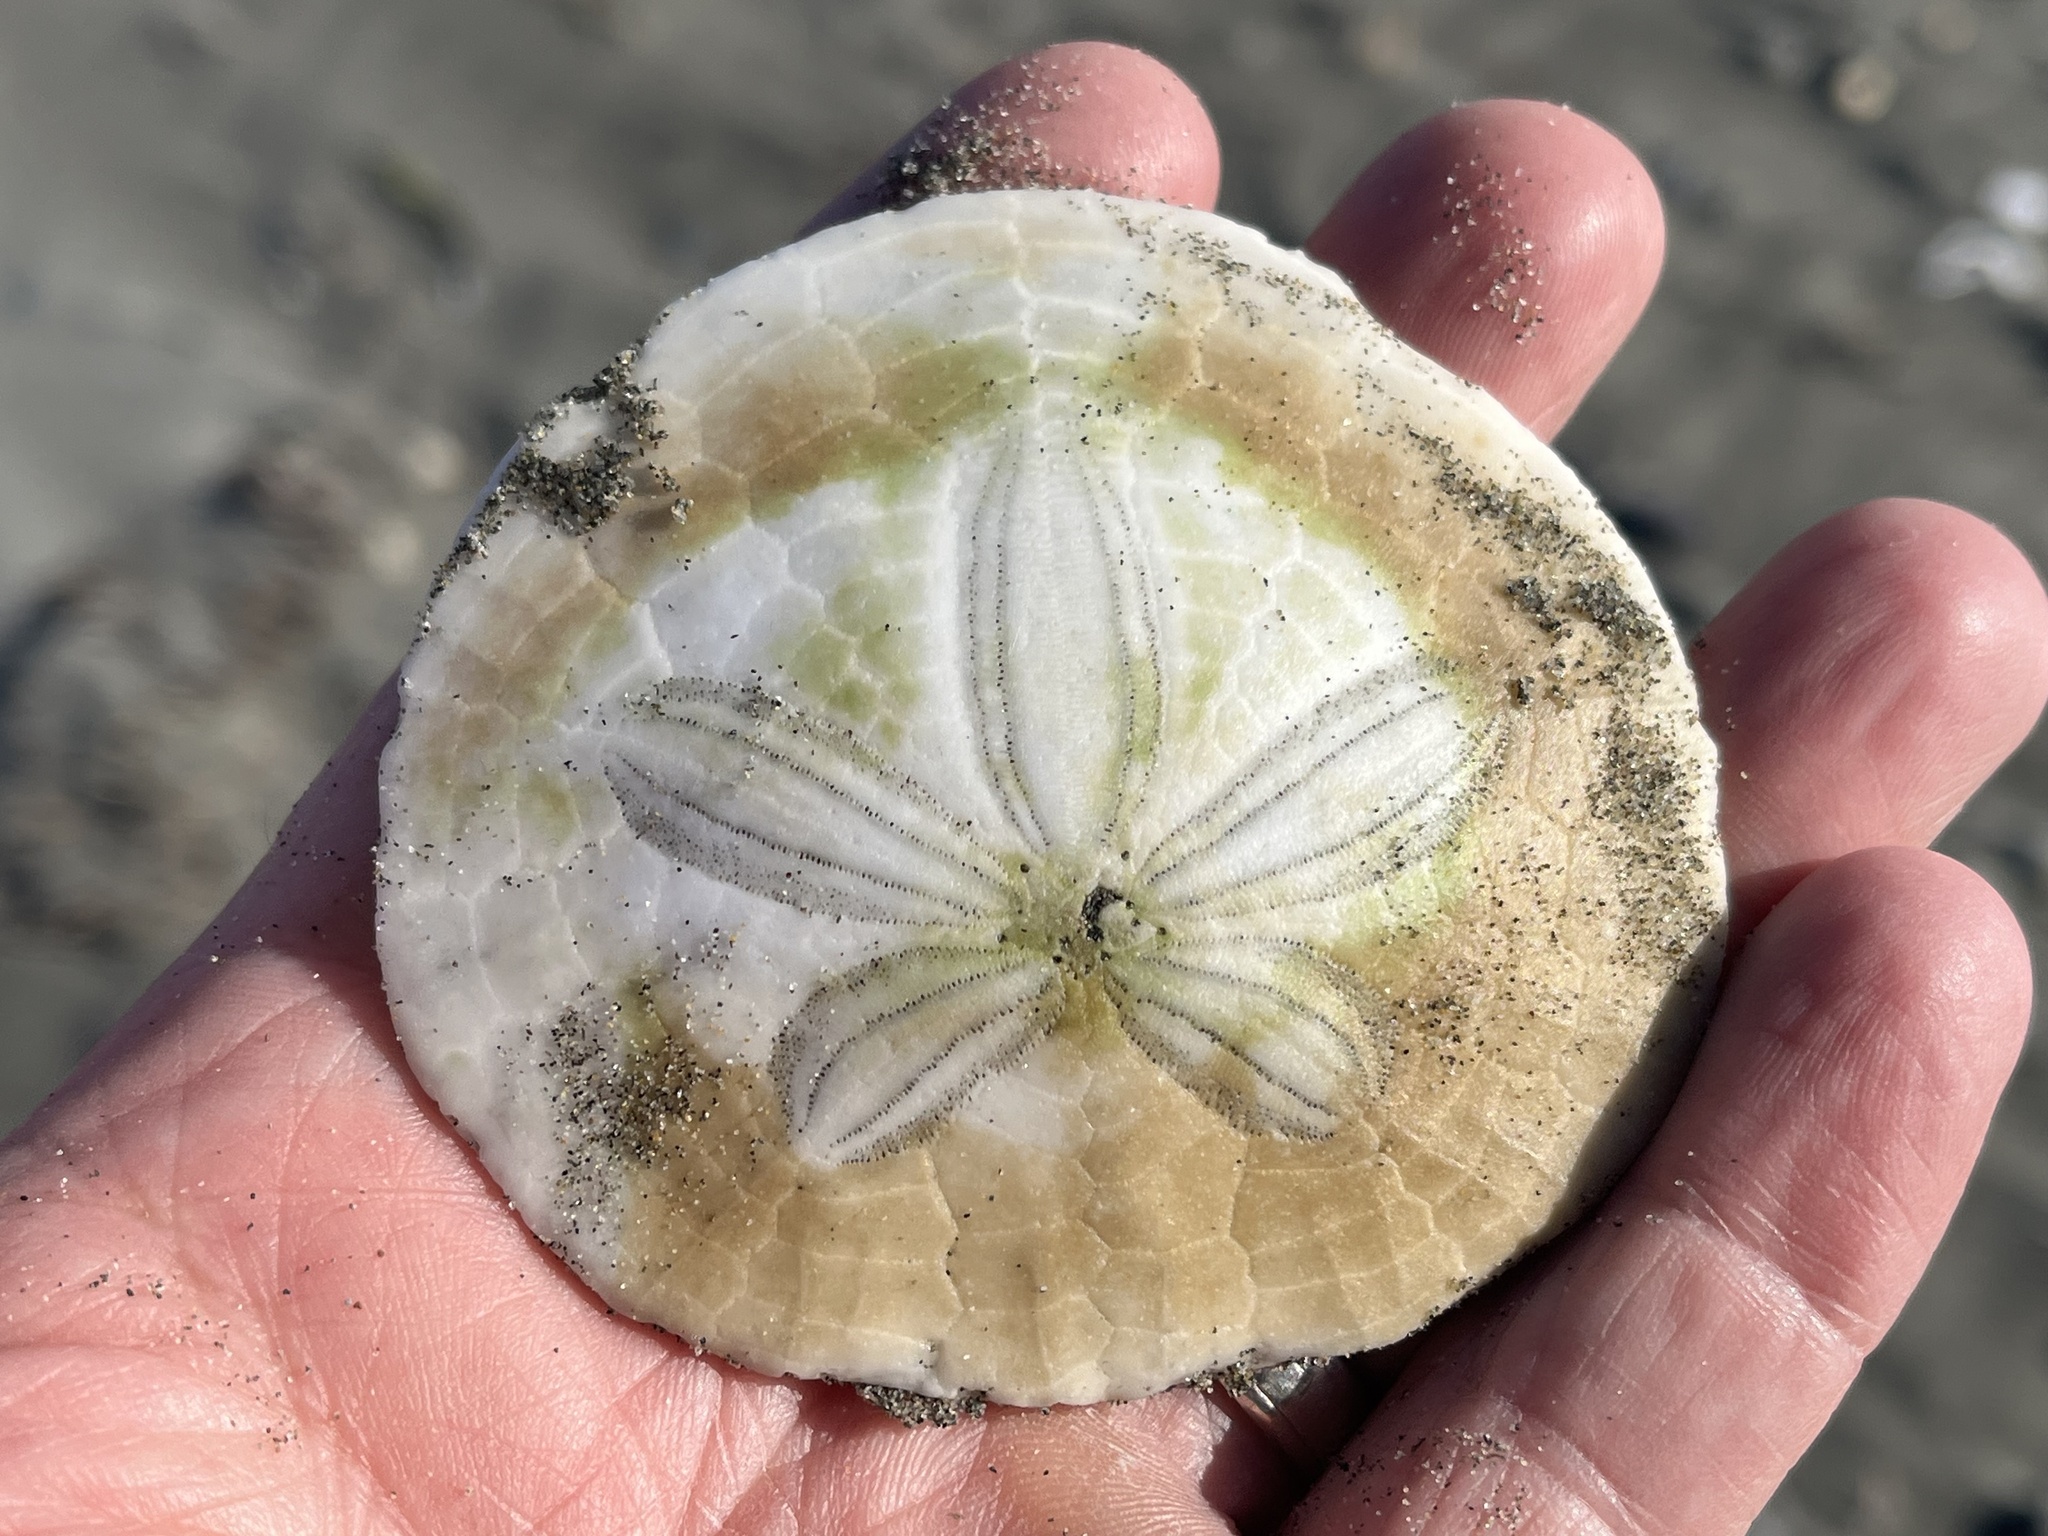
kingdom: Animalia
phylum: Echinodermata
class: Echinoidea
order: Echinolampadacea
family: Dendrasteridae
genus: Dendraster
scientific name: Dendraster excentricus
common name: Eccentric sand dollar sea urchin
